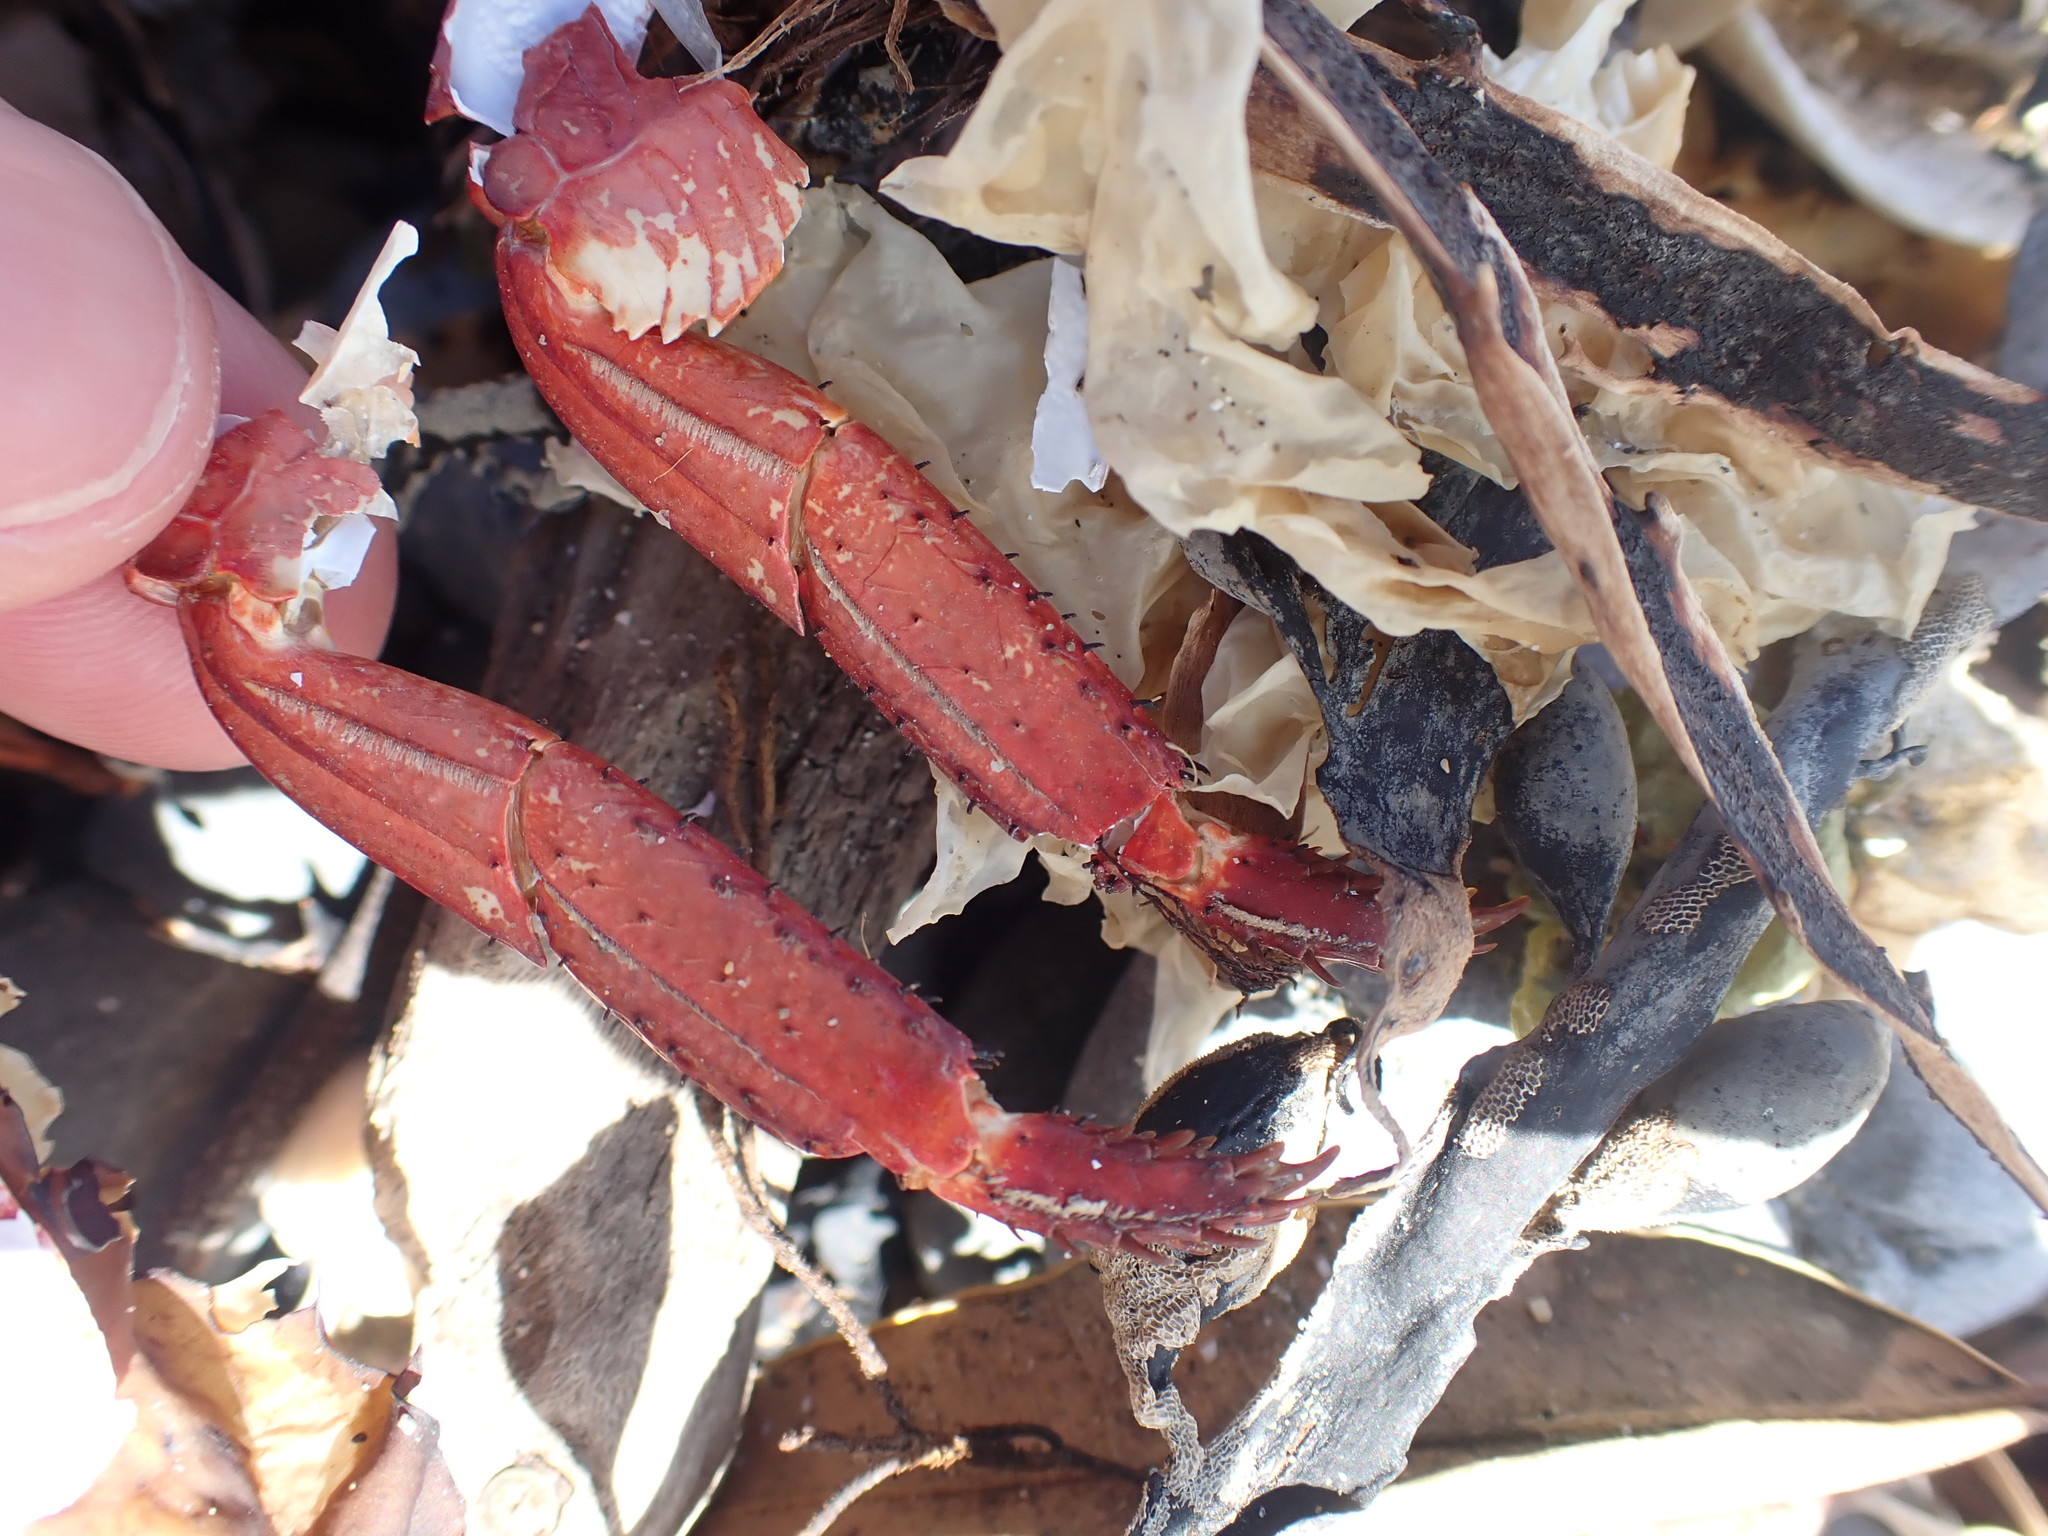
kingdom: Animalia
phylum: Arthropoda
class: Malacostraca
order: Decapoda
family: Grapsidae
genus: Leptograpsus
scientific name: Leptograpsus variegatus
